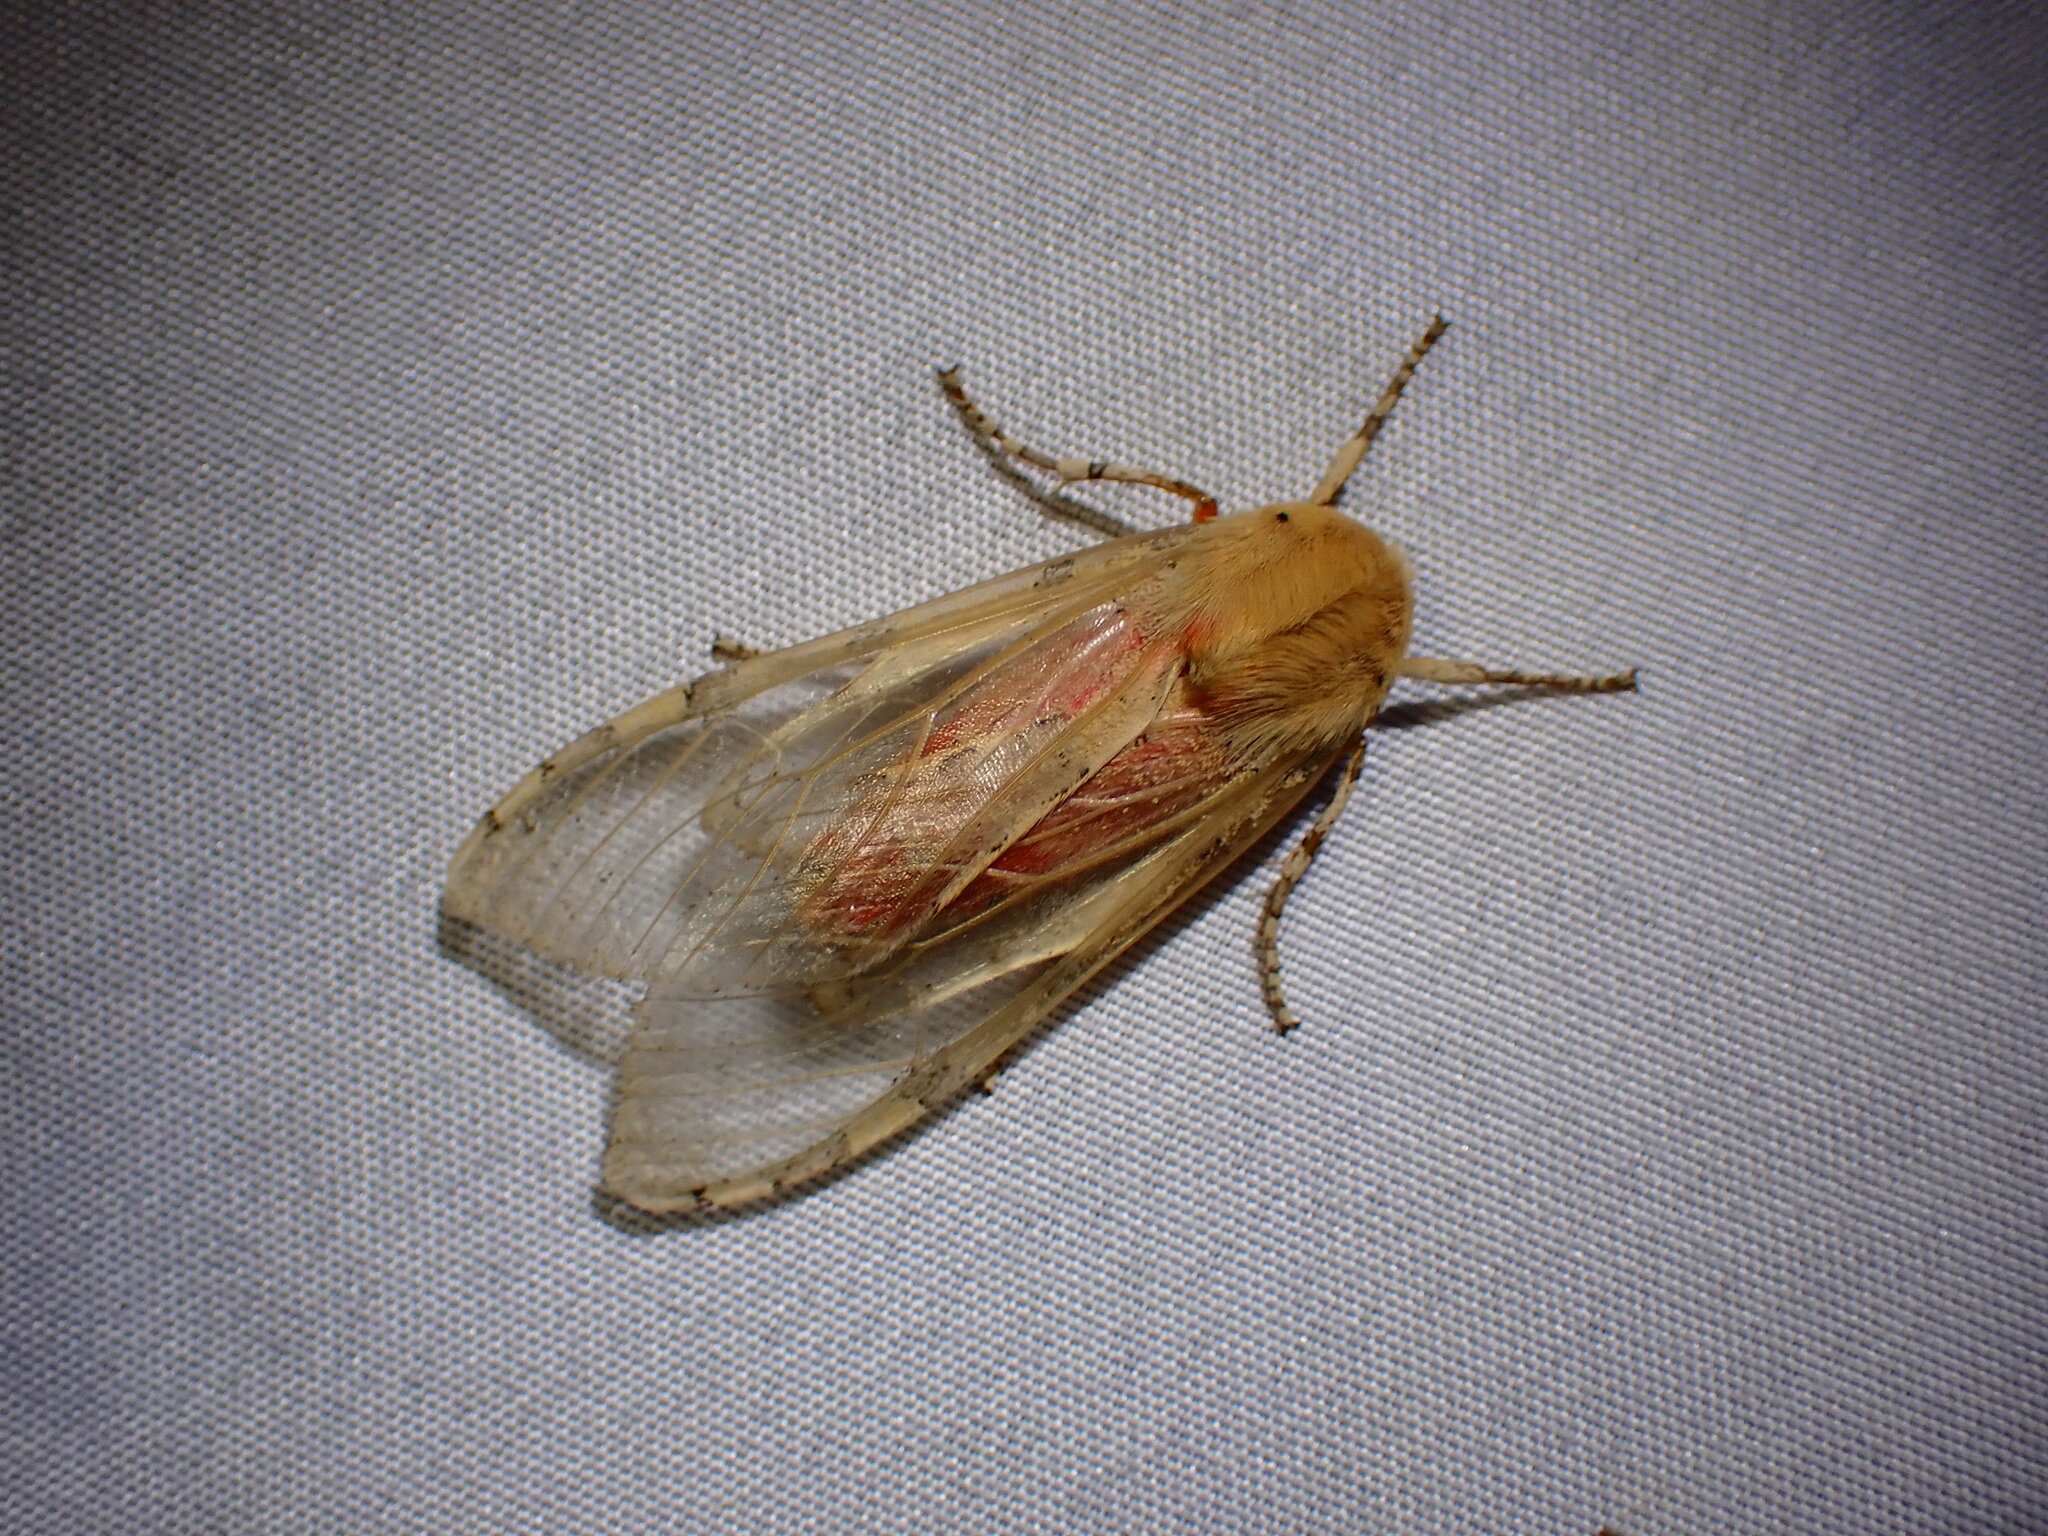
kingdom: Animalia
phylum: Arthropoda
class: Insecta
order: Lepidoptera
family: Erebidae
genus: Hemihyalea
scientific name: Hemihyalea edwardsii
